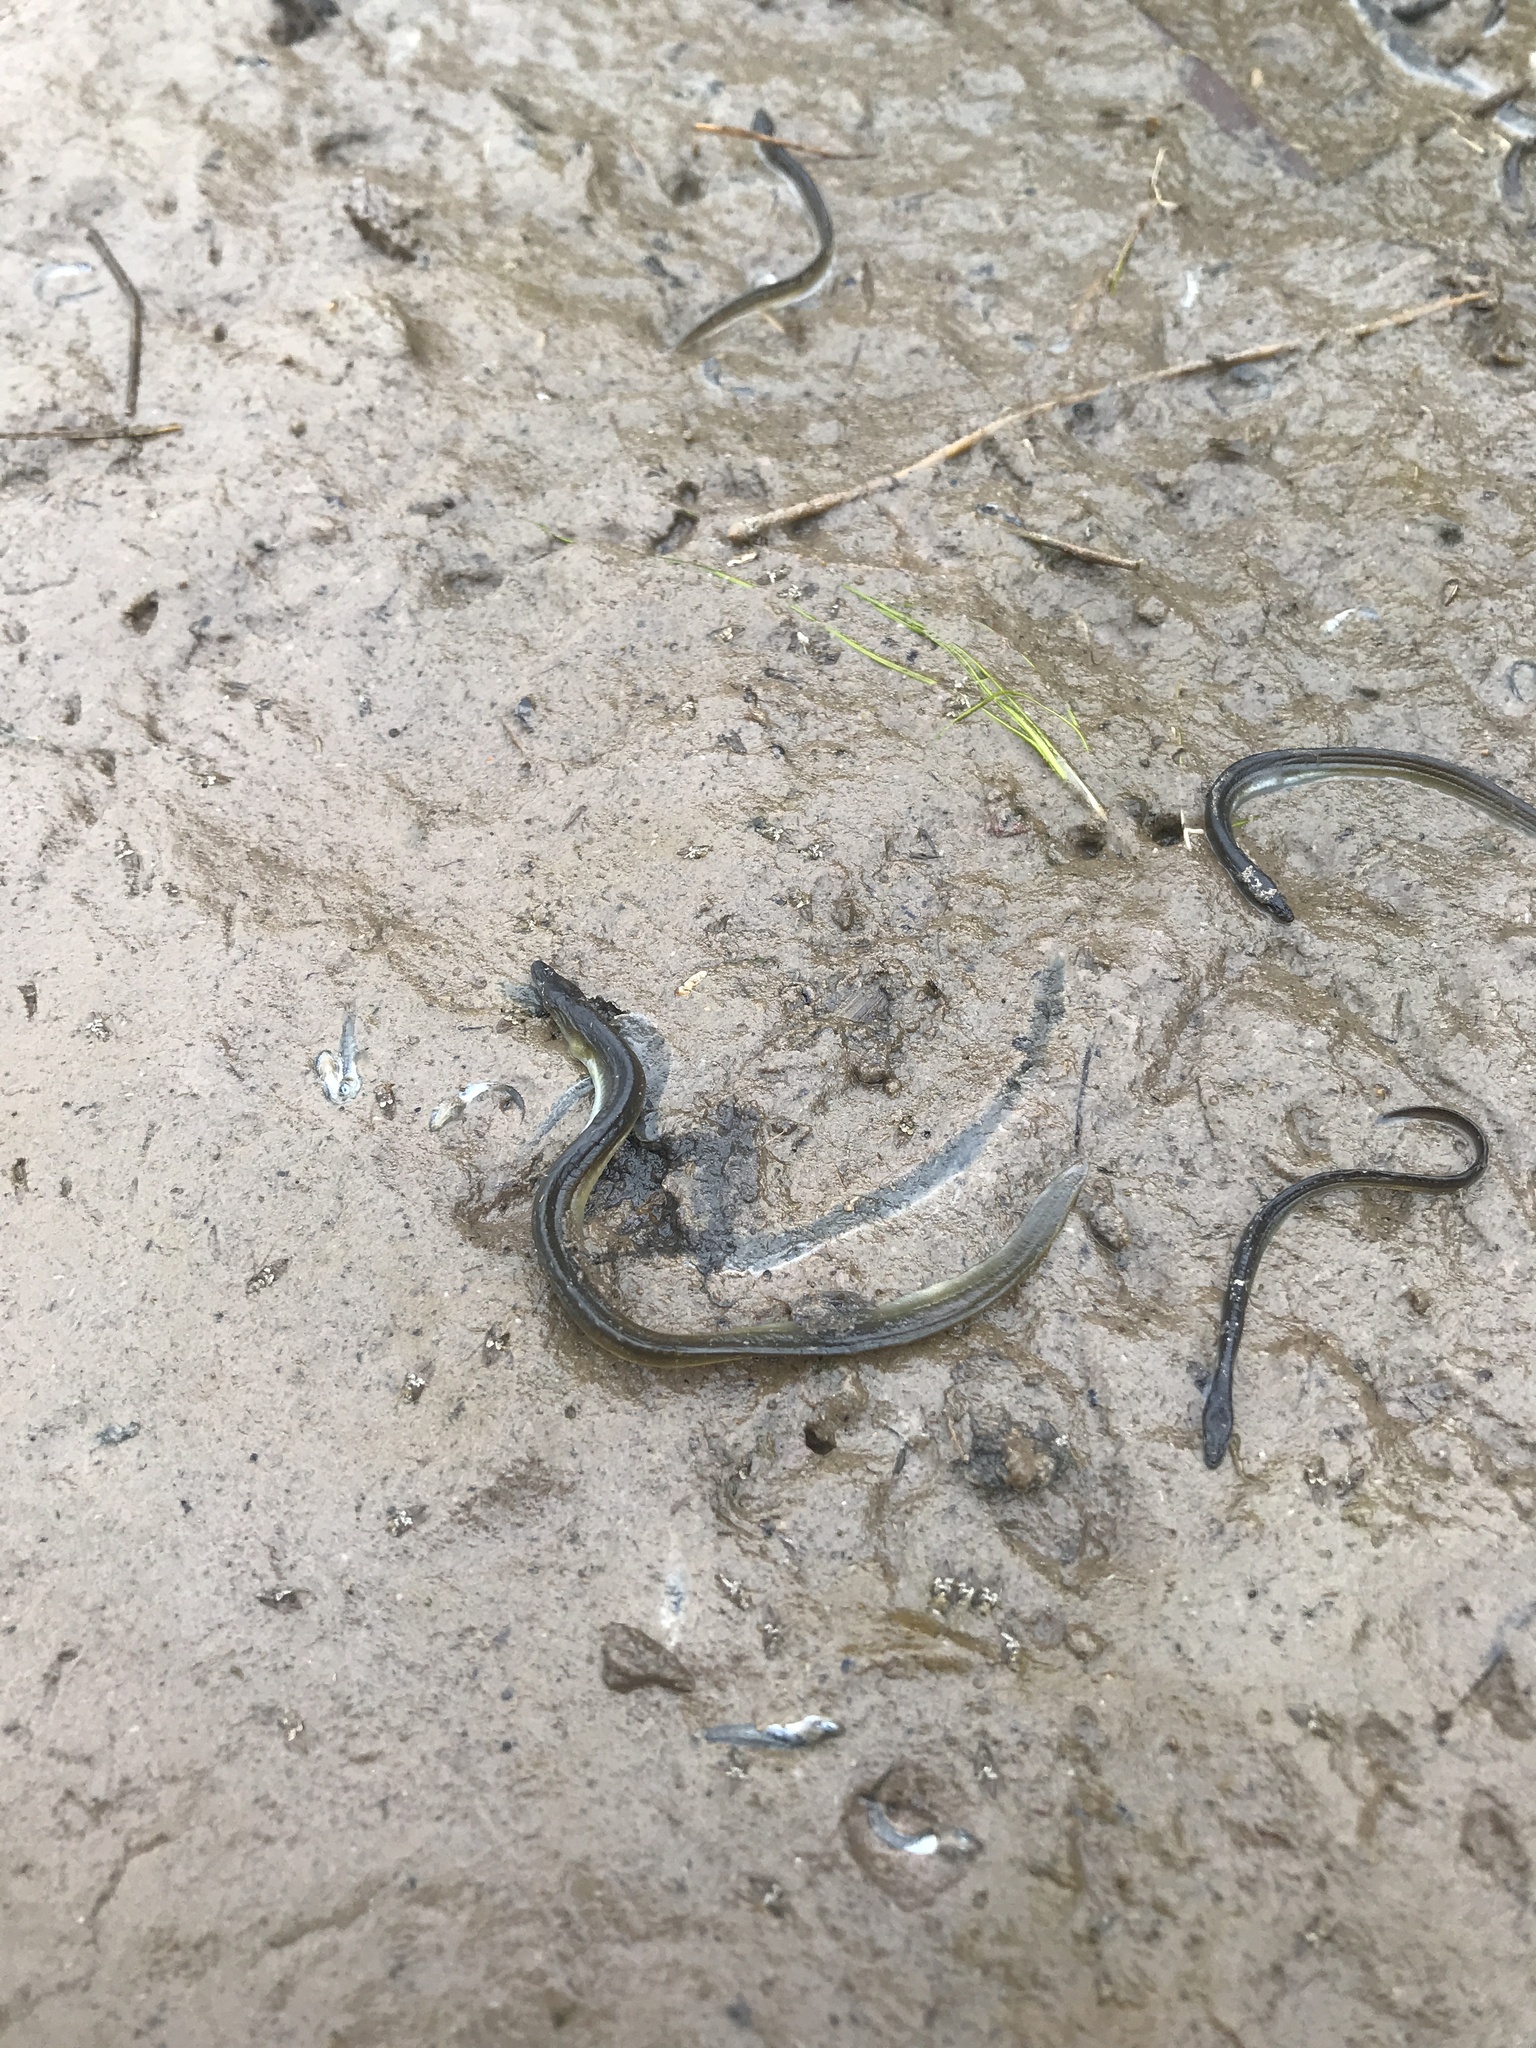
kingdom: Animalia
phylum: Chordata
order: Anguilliformes
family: Anguillidae
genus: Anguilla
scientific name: Anguilla rostrata
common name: American eel
